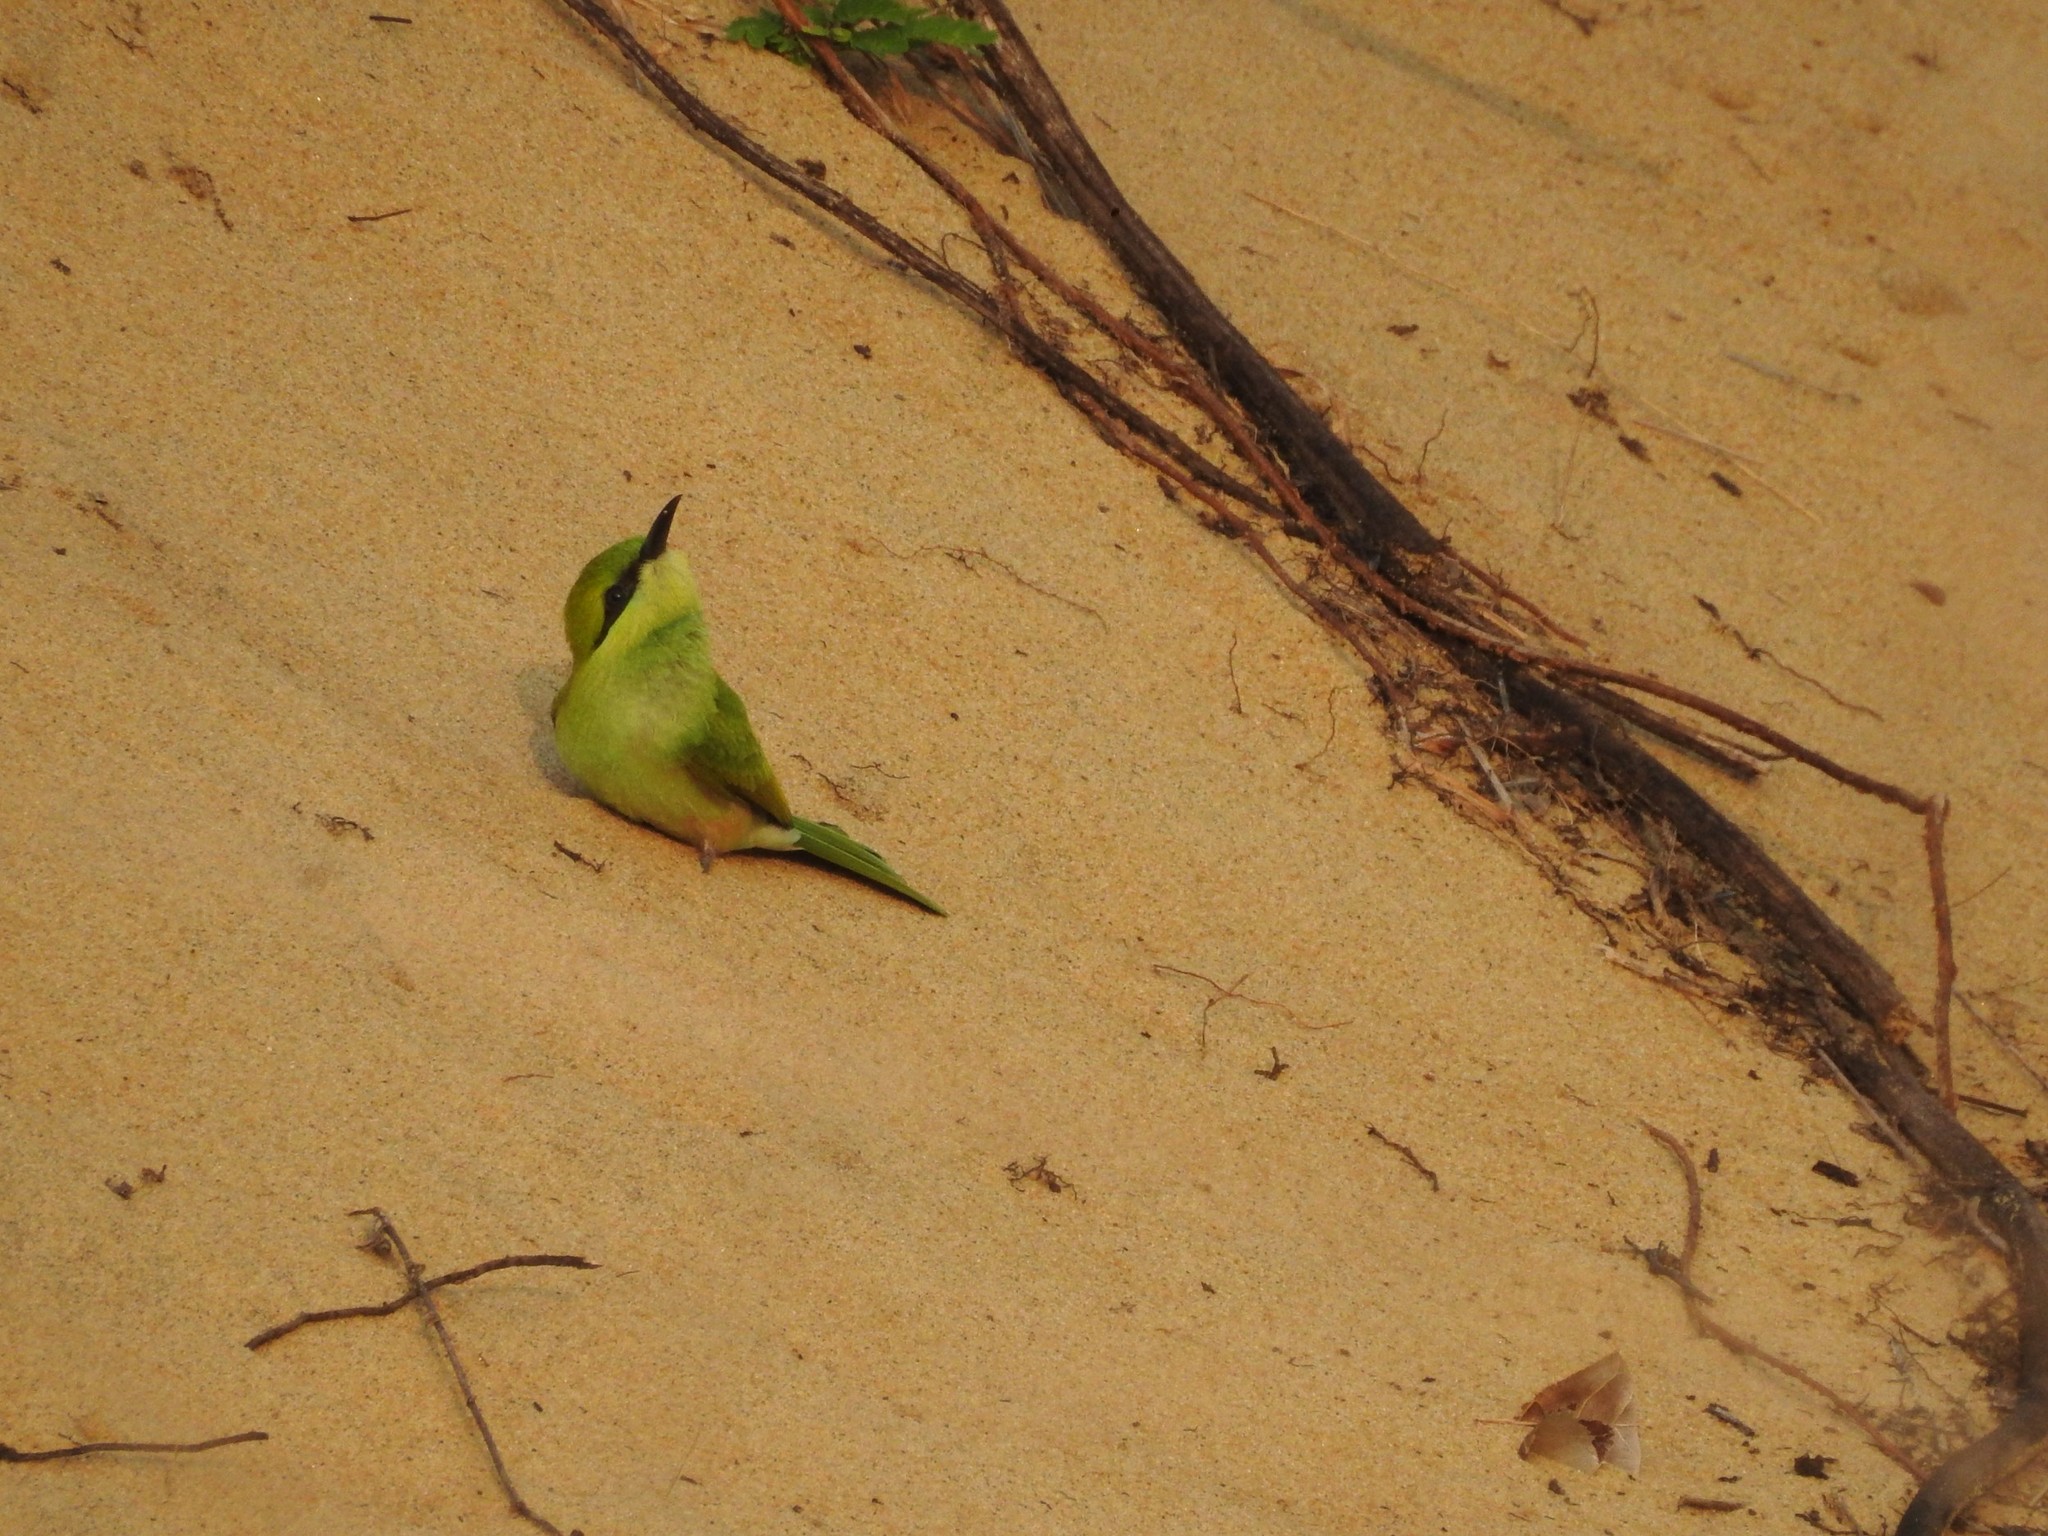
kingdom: Animalia
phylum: Chordata
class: Aves
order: Coraciiformes
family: Meropidae
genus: Merops
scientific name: Merops orientalis
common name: Green bee-eater
